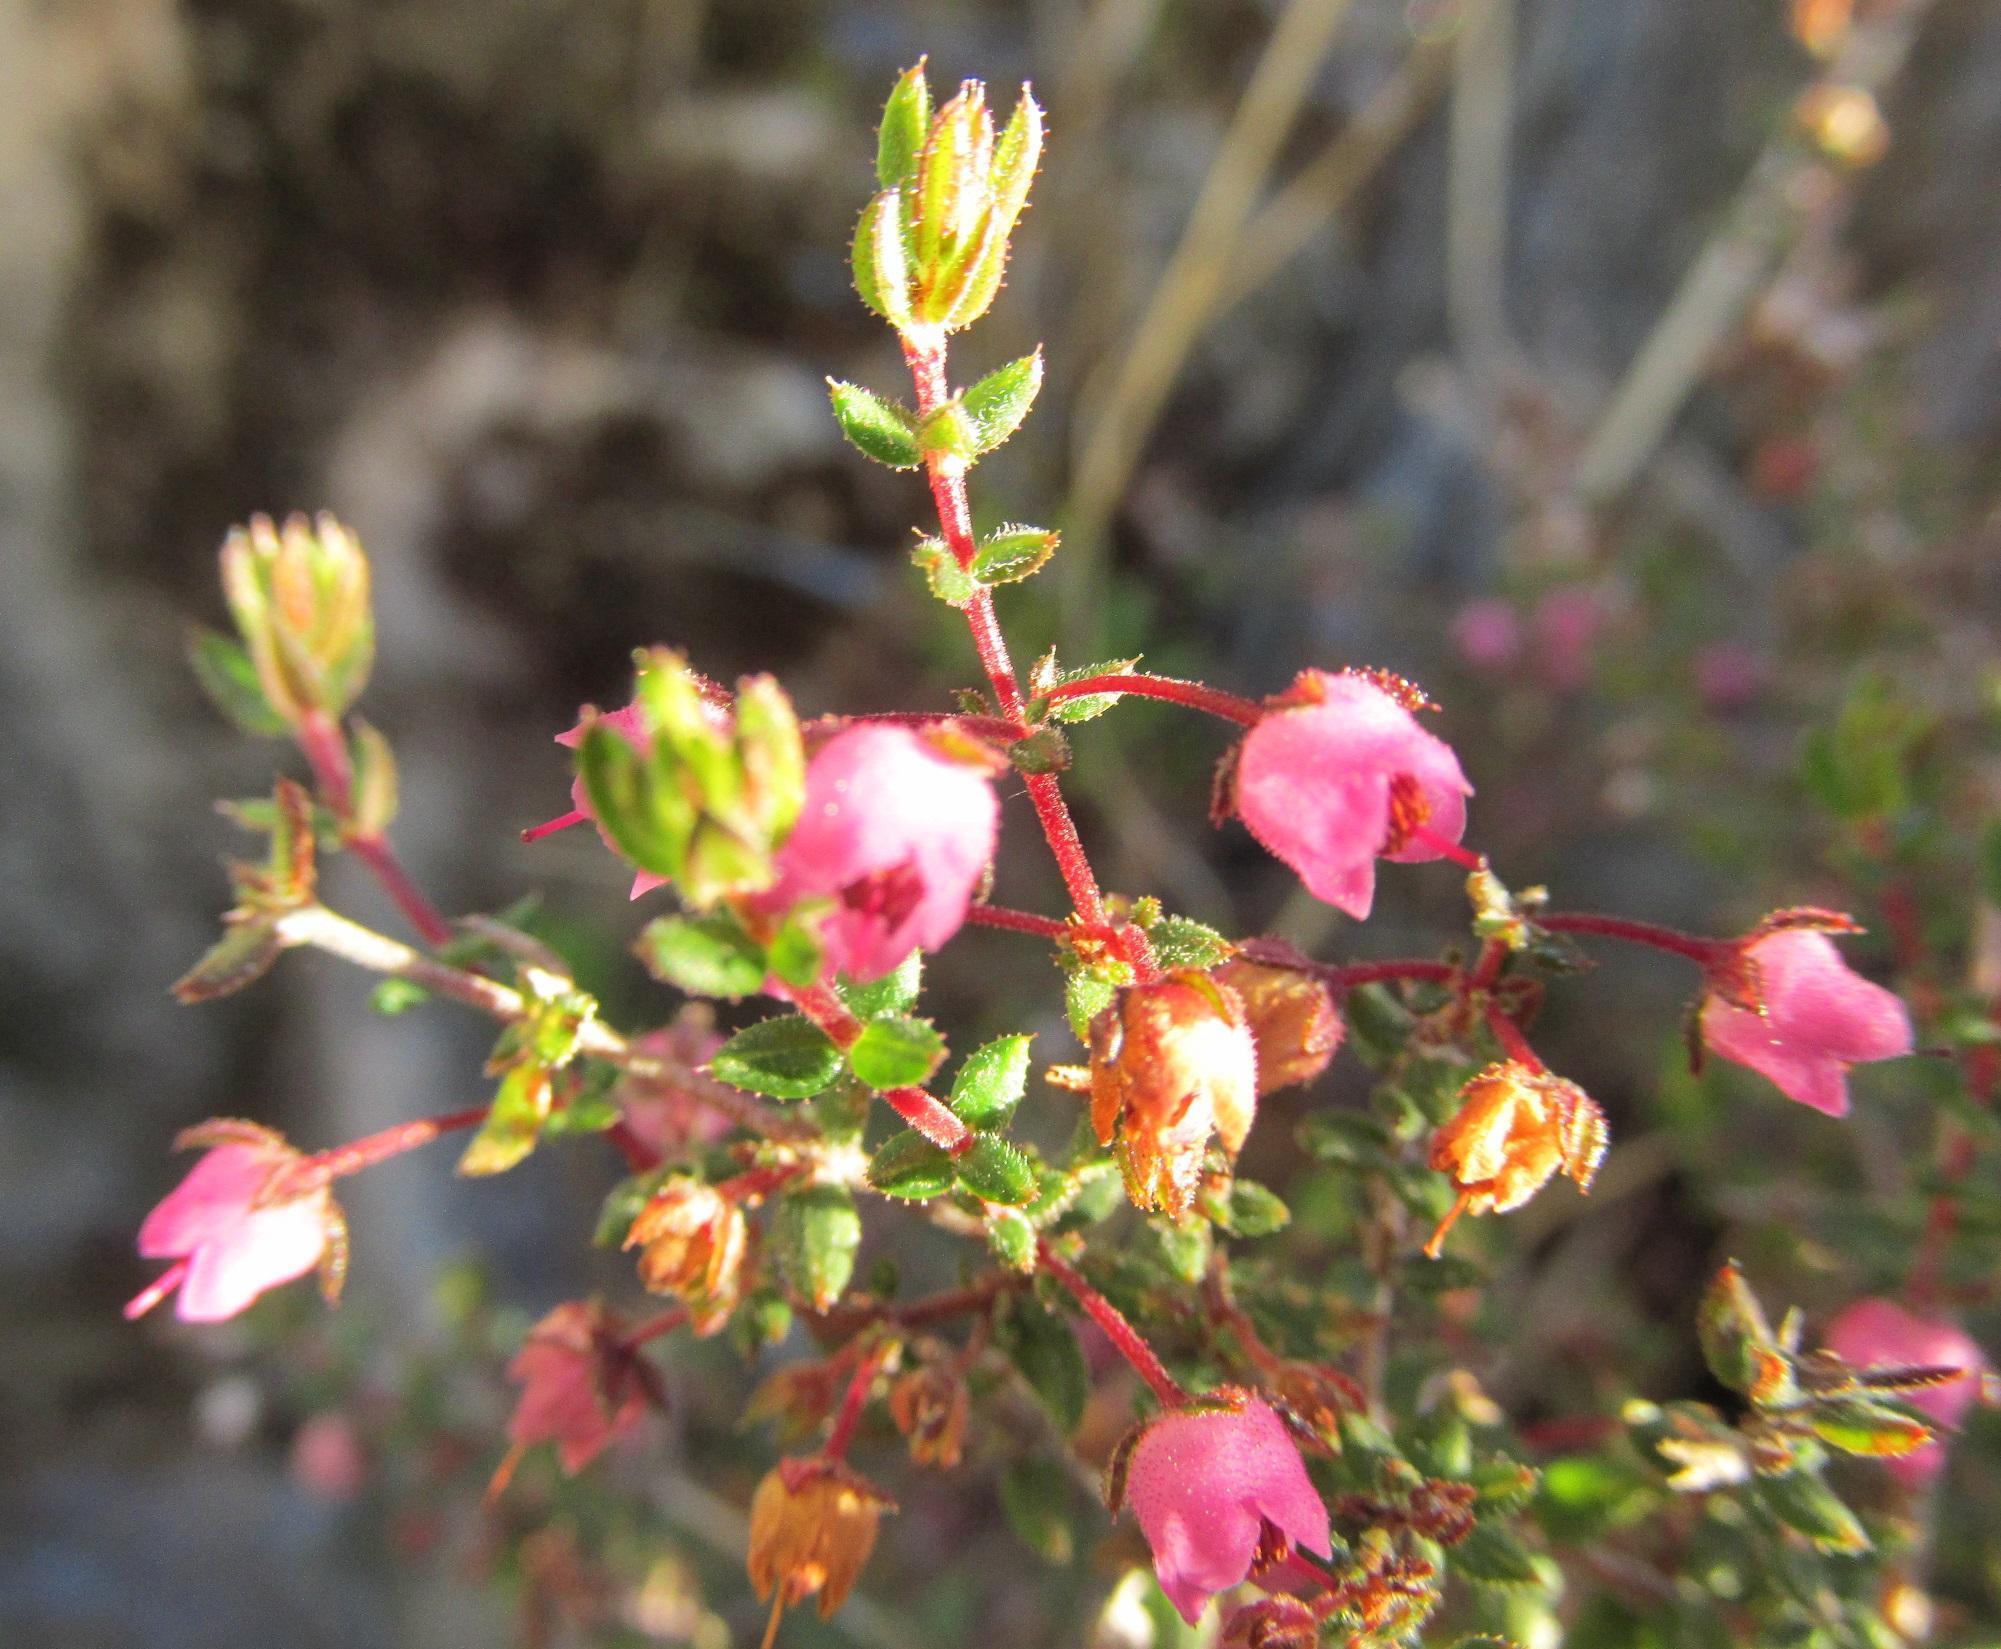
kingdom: Plantae
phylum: Tracheophyta
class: Magnoliopsida
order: Ericales
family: Ericaceae
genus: Erica
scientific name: Erica planifolia
